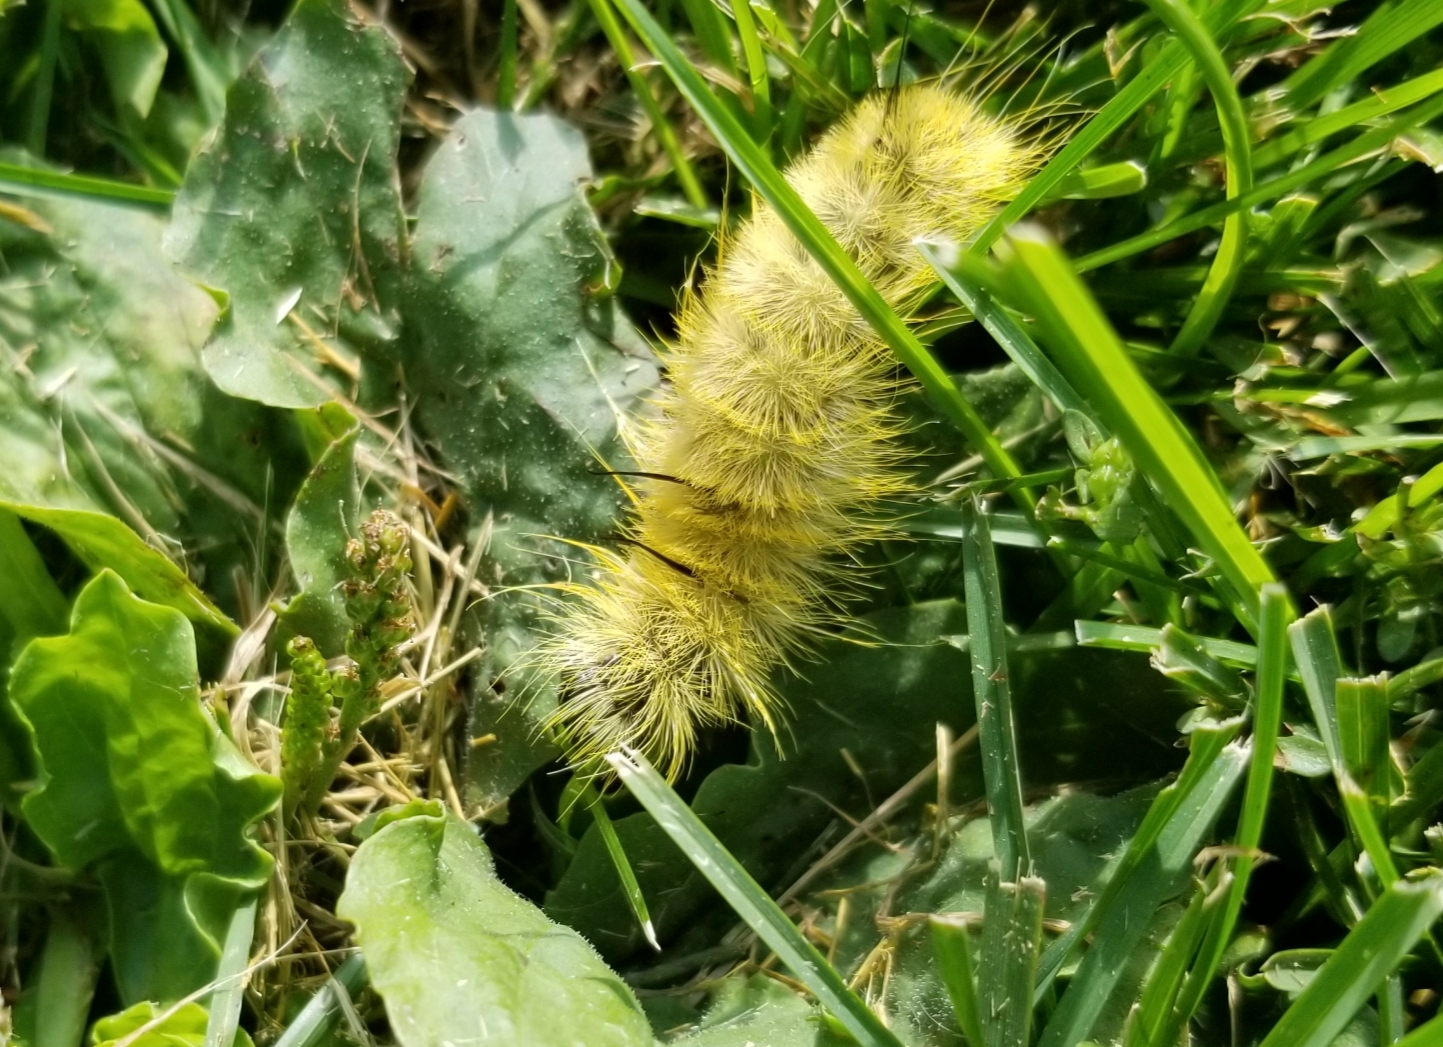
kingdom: Animalia
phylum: Arthropoda
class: Insecta
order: Lepidoptera
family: Noctuidae
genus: Acronicta
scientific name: Acronicta americana
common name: American dagger
